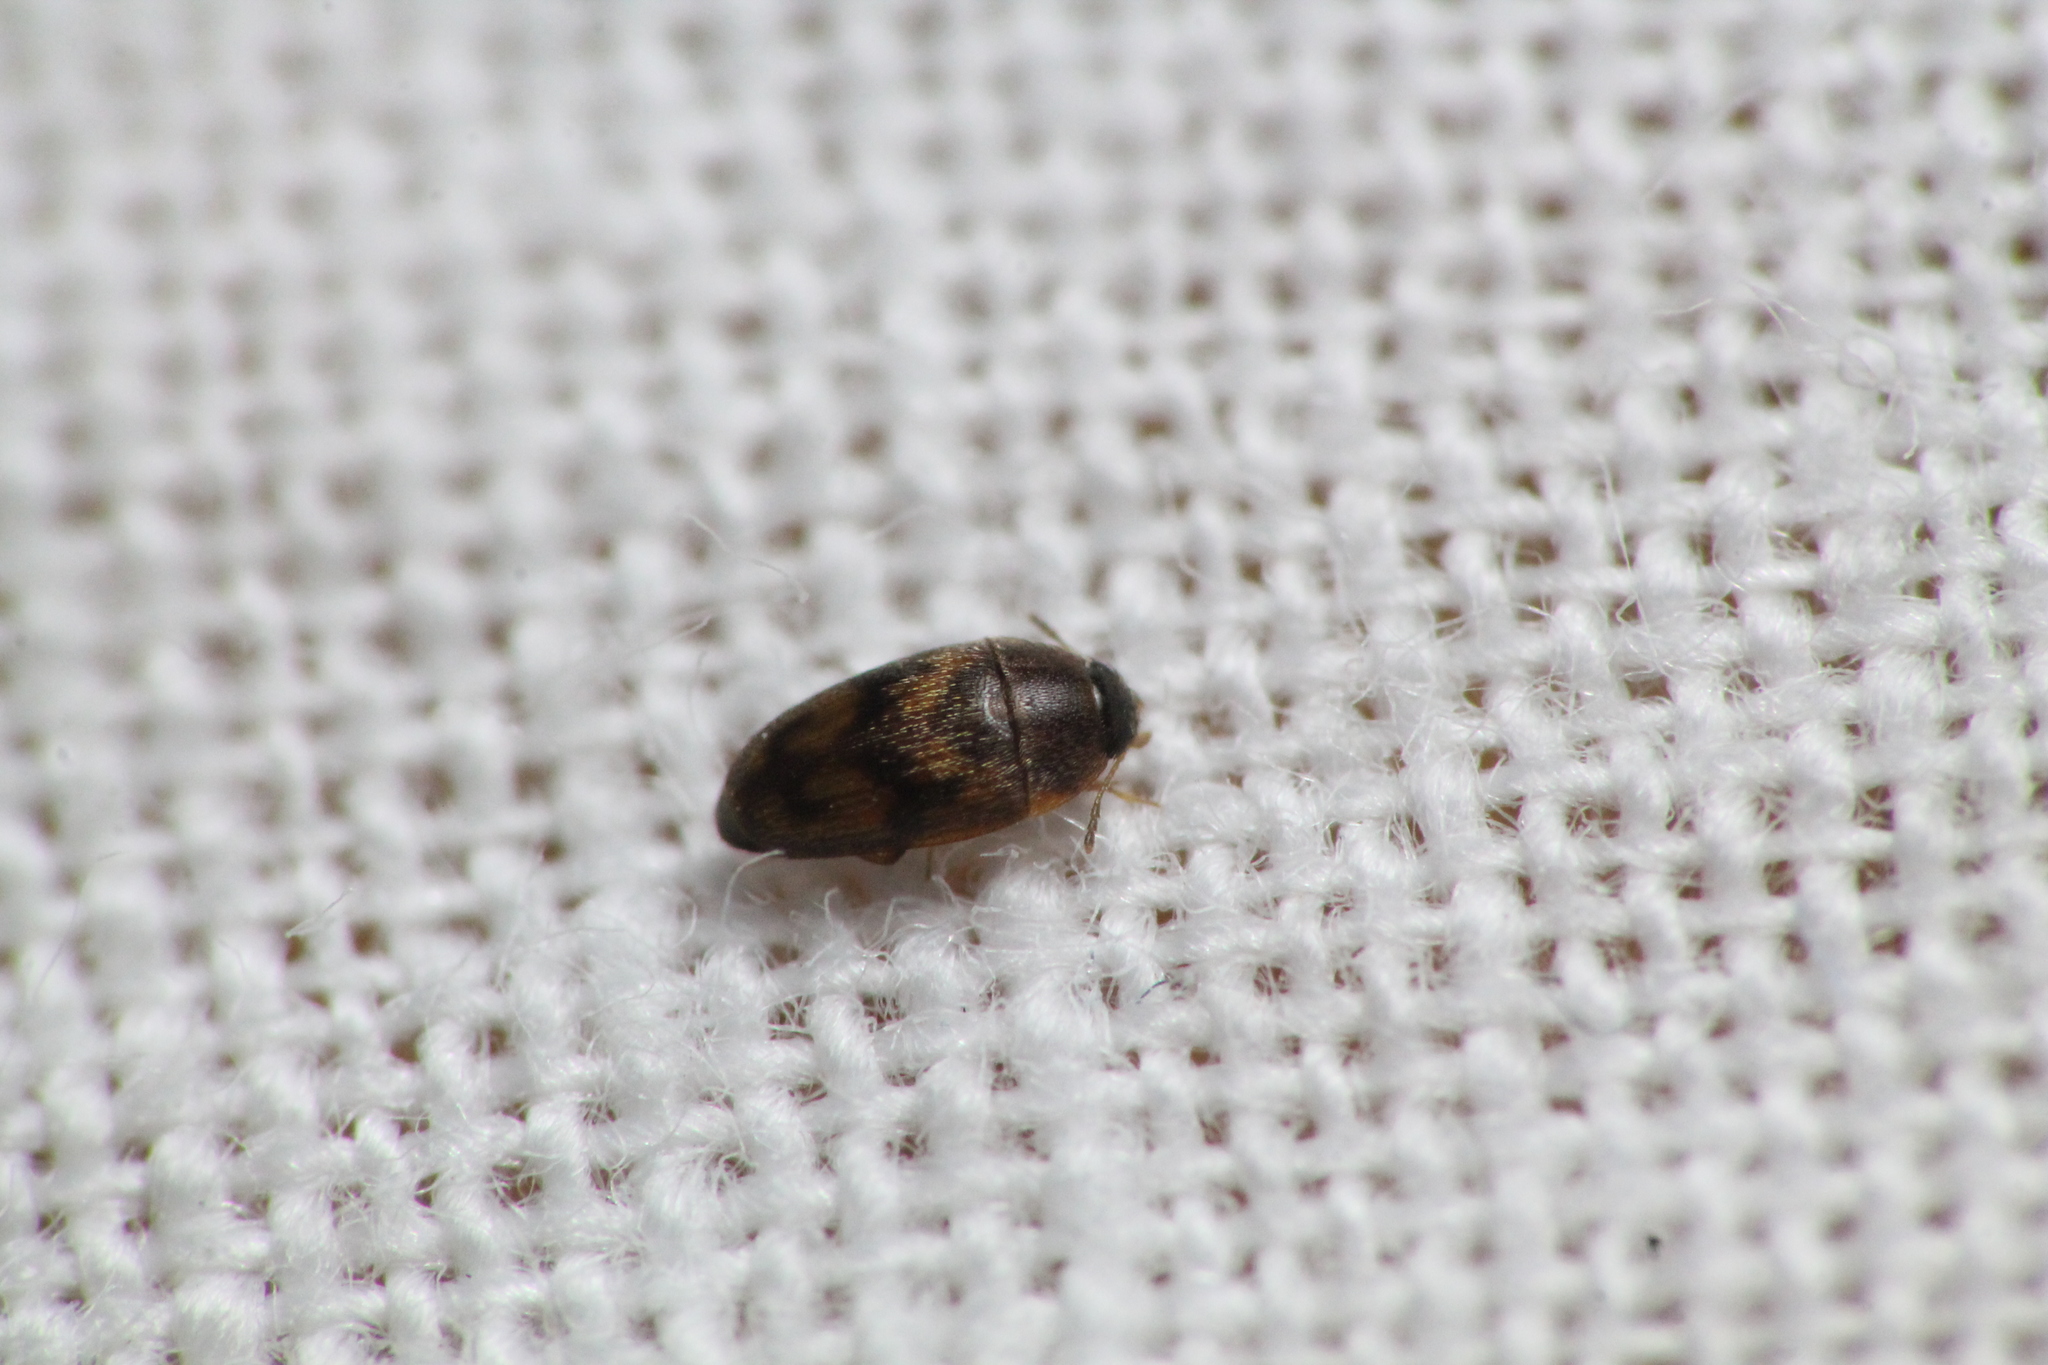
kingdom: Animalia
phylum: Arthropoda
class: Insecta
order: Coleoptera
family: Mycetophagidae
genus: Litargus
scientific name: Litargus vestitus
